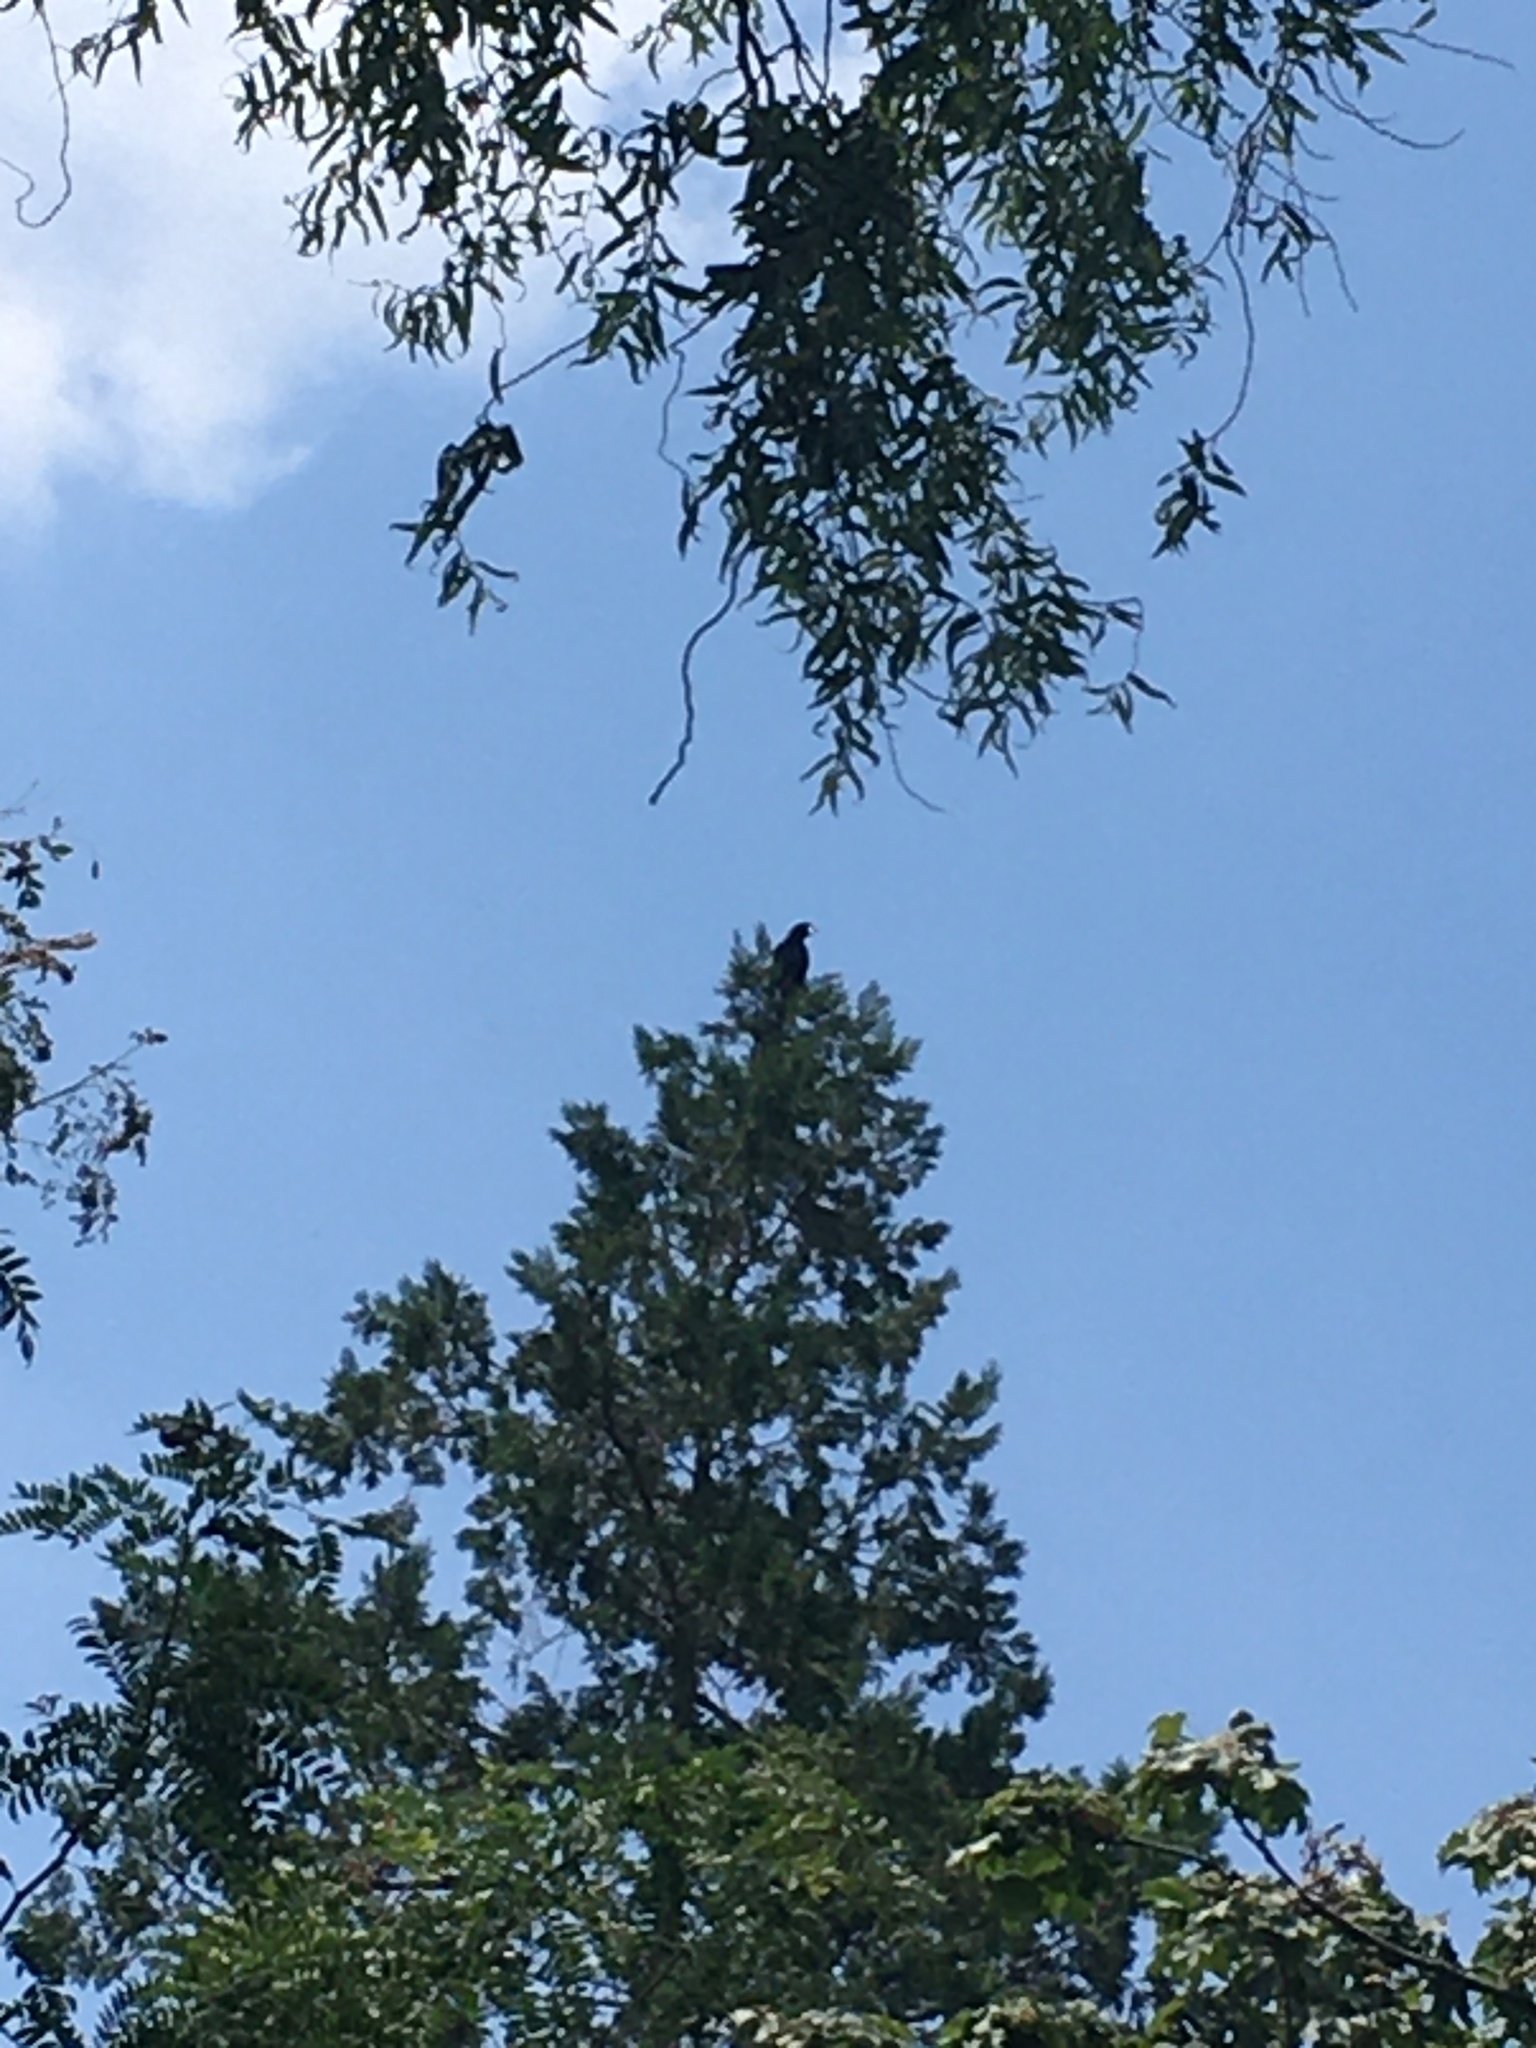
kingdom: Animalia
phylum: Chordata
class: Aves
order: Passeriformes
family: Corvidae
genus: Corvus
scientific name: Corvus brachyrhynchos
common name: American crow
